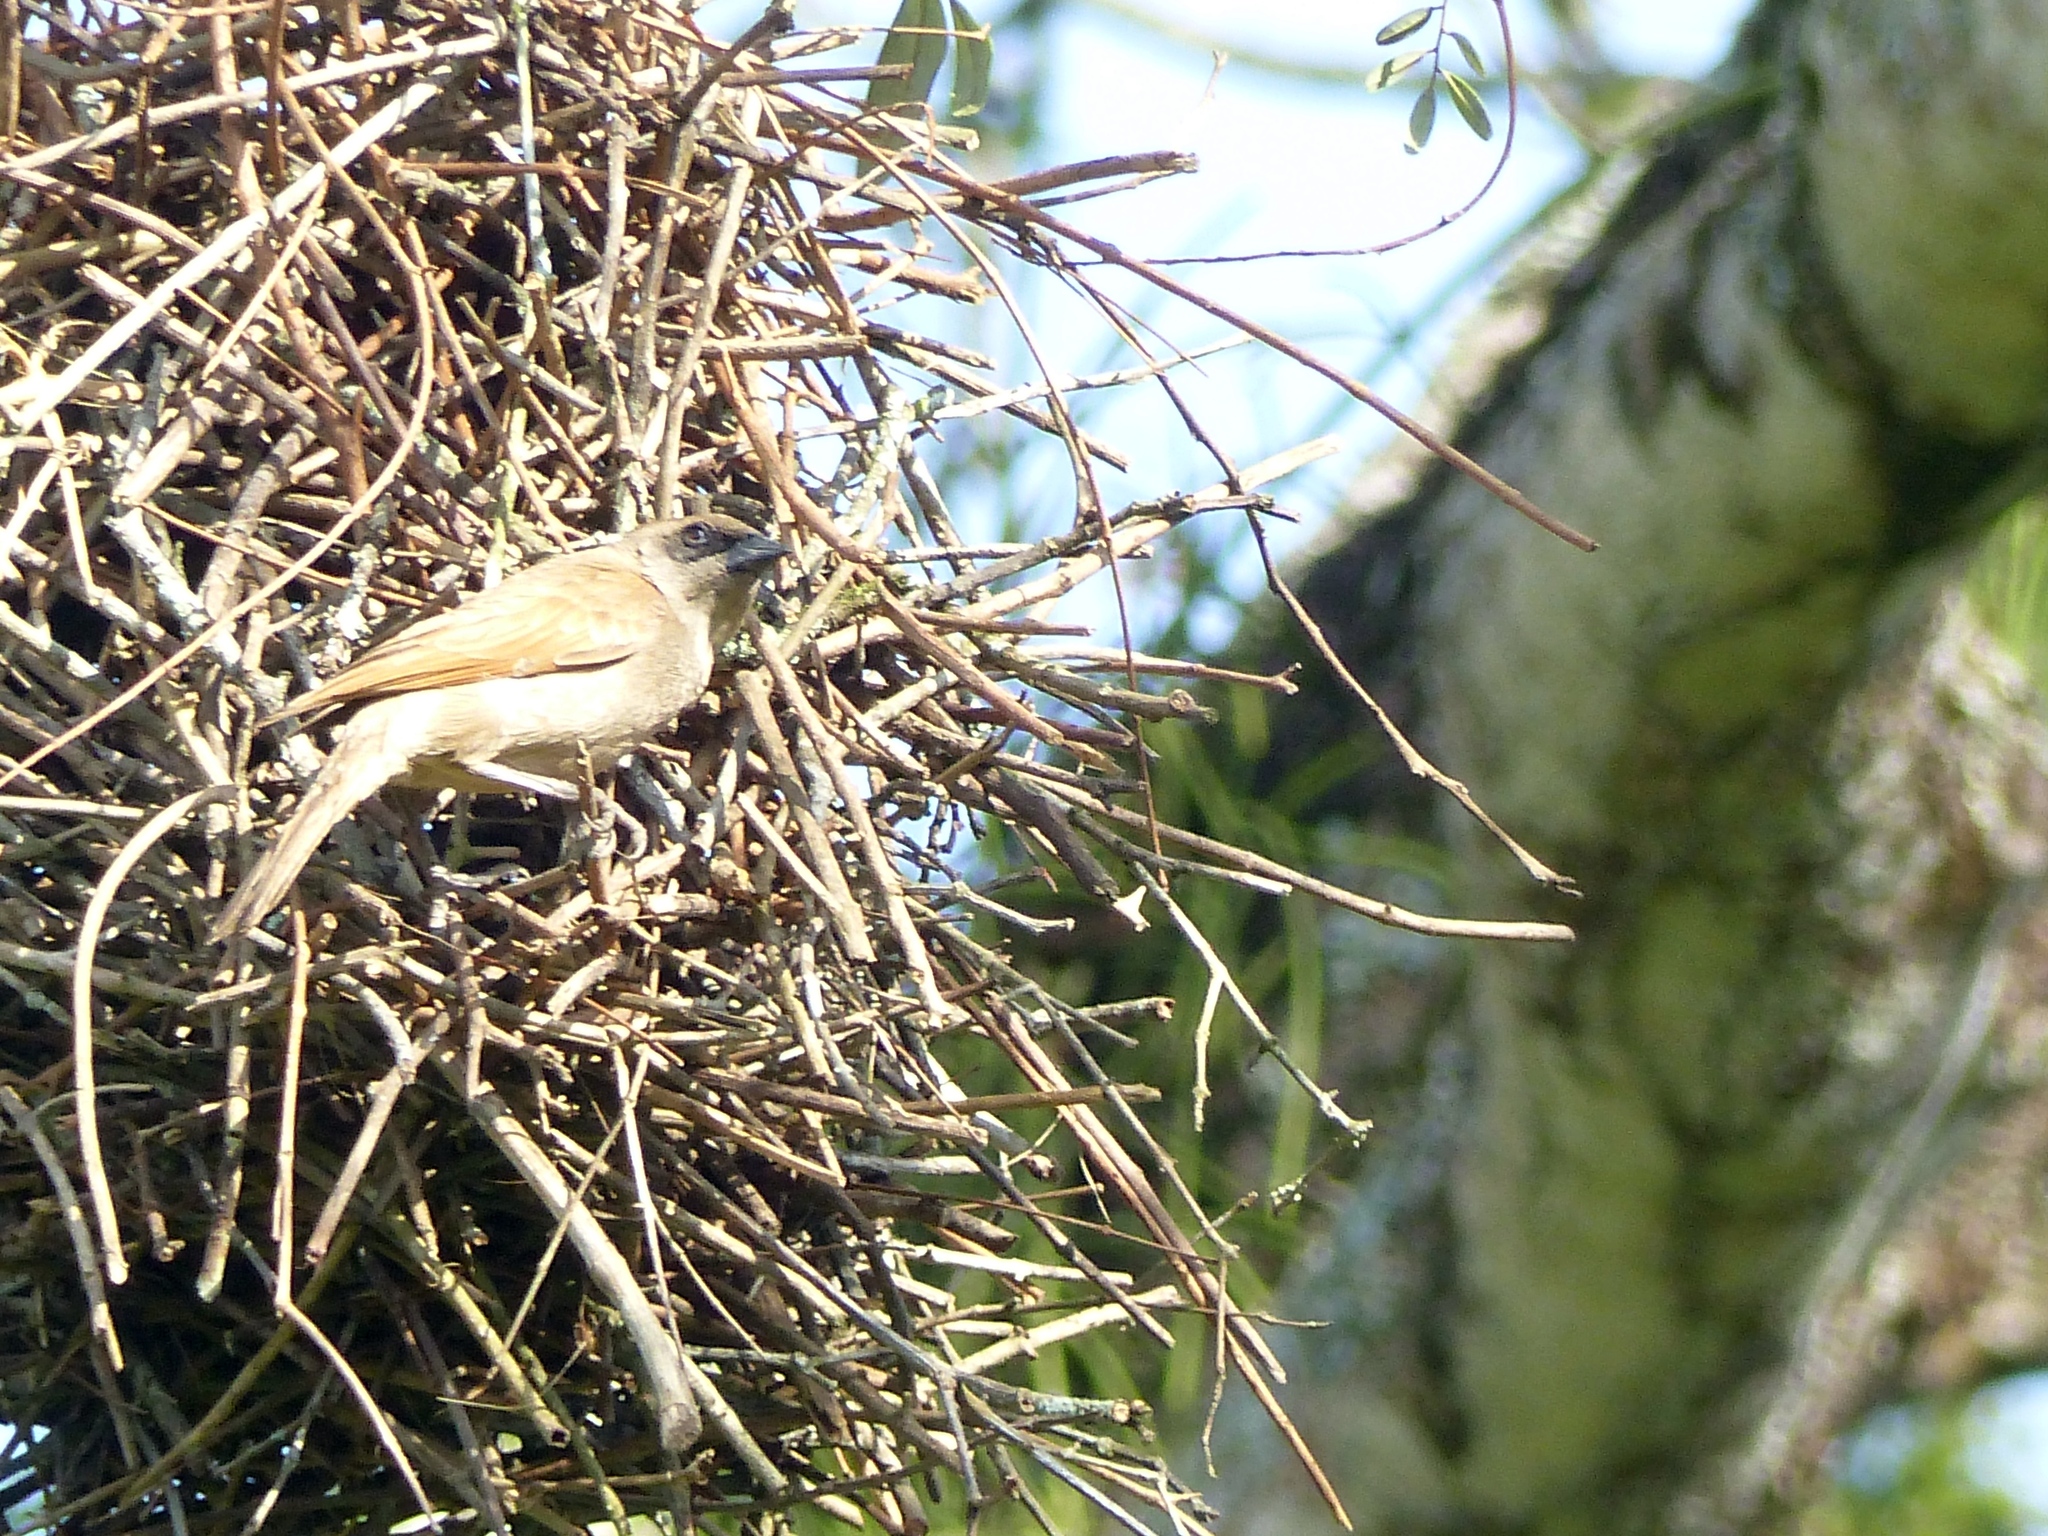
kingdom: Animalia
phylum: Chordata
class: Aves
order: Passeriformes
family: Icteridae
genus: Agelaioides
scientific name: Agelaioides badius
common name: Baywing
